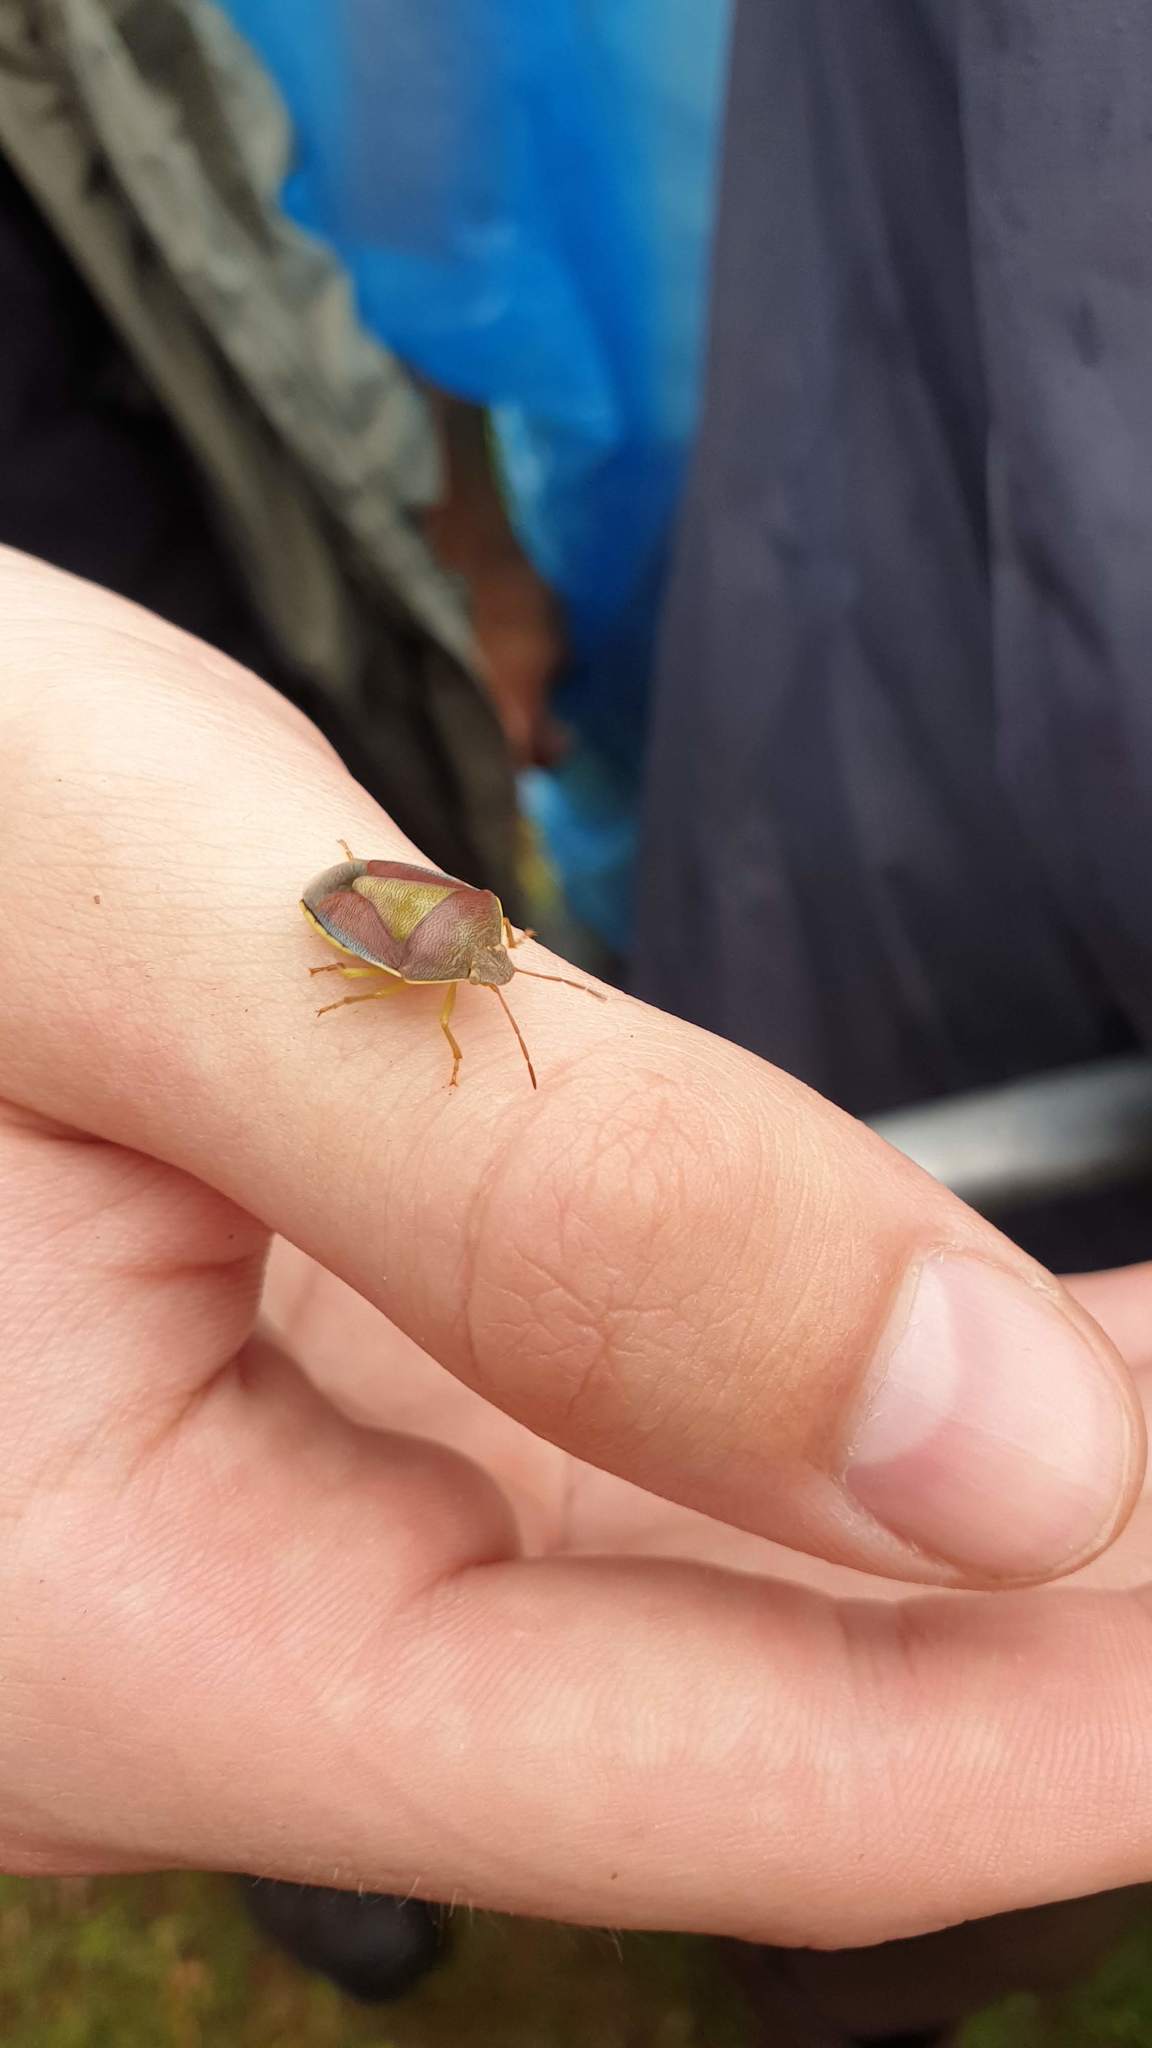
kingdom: Animalia
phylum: Arthropoda
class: Insecta
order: Hemiptera
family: Pentatomidae
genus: Piezodorus
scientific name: Piezodorus lituratus
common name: Stink bug
